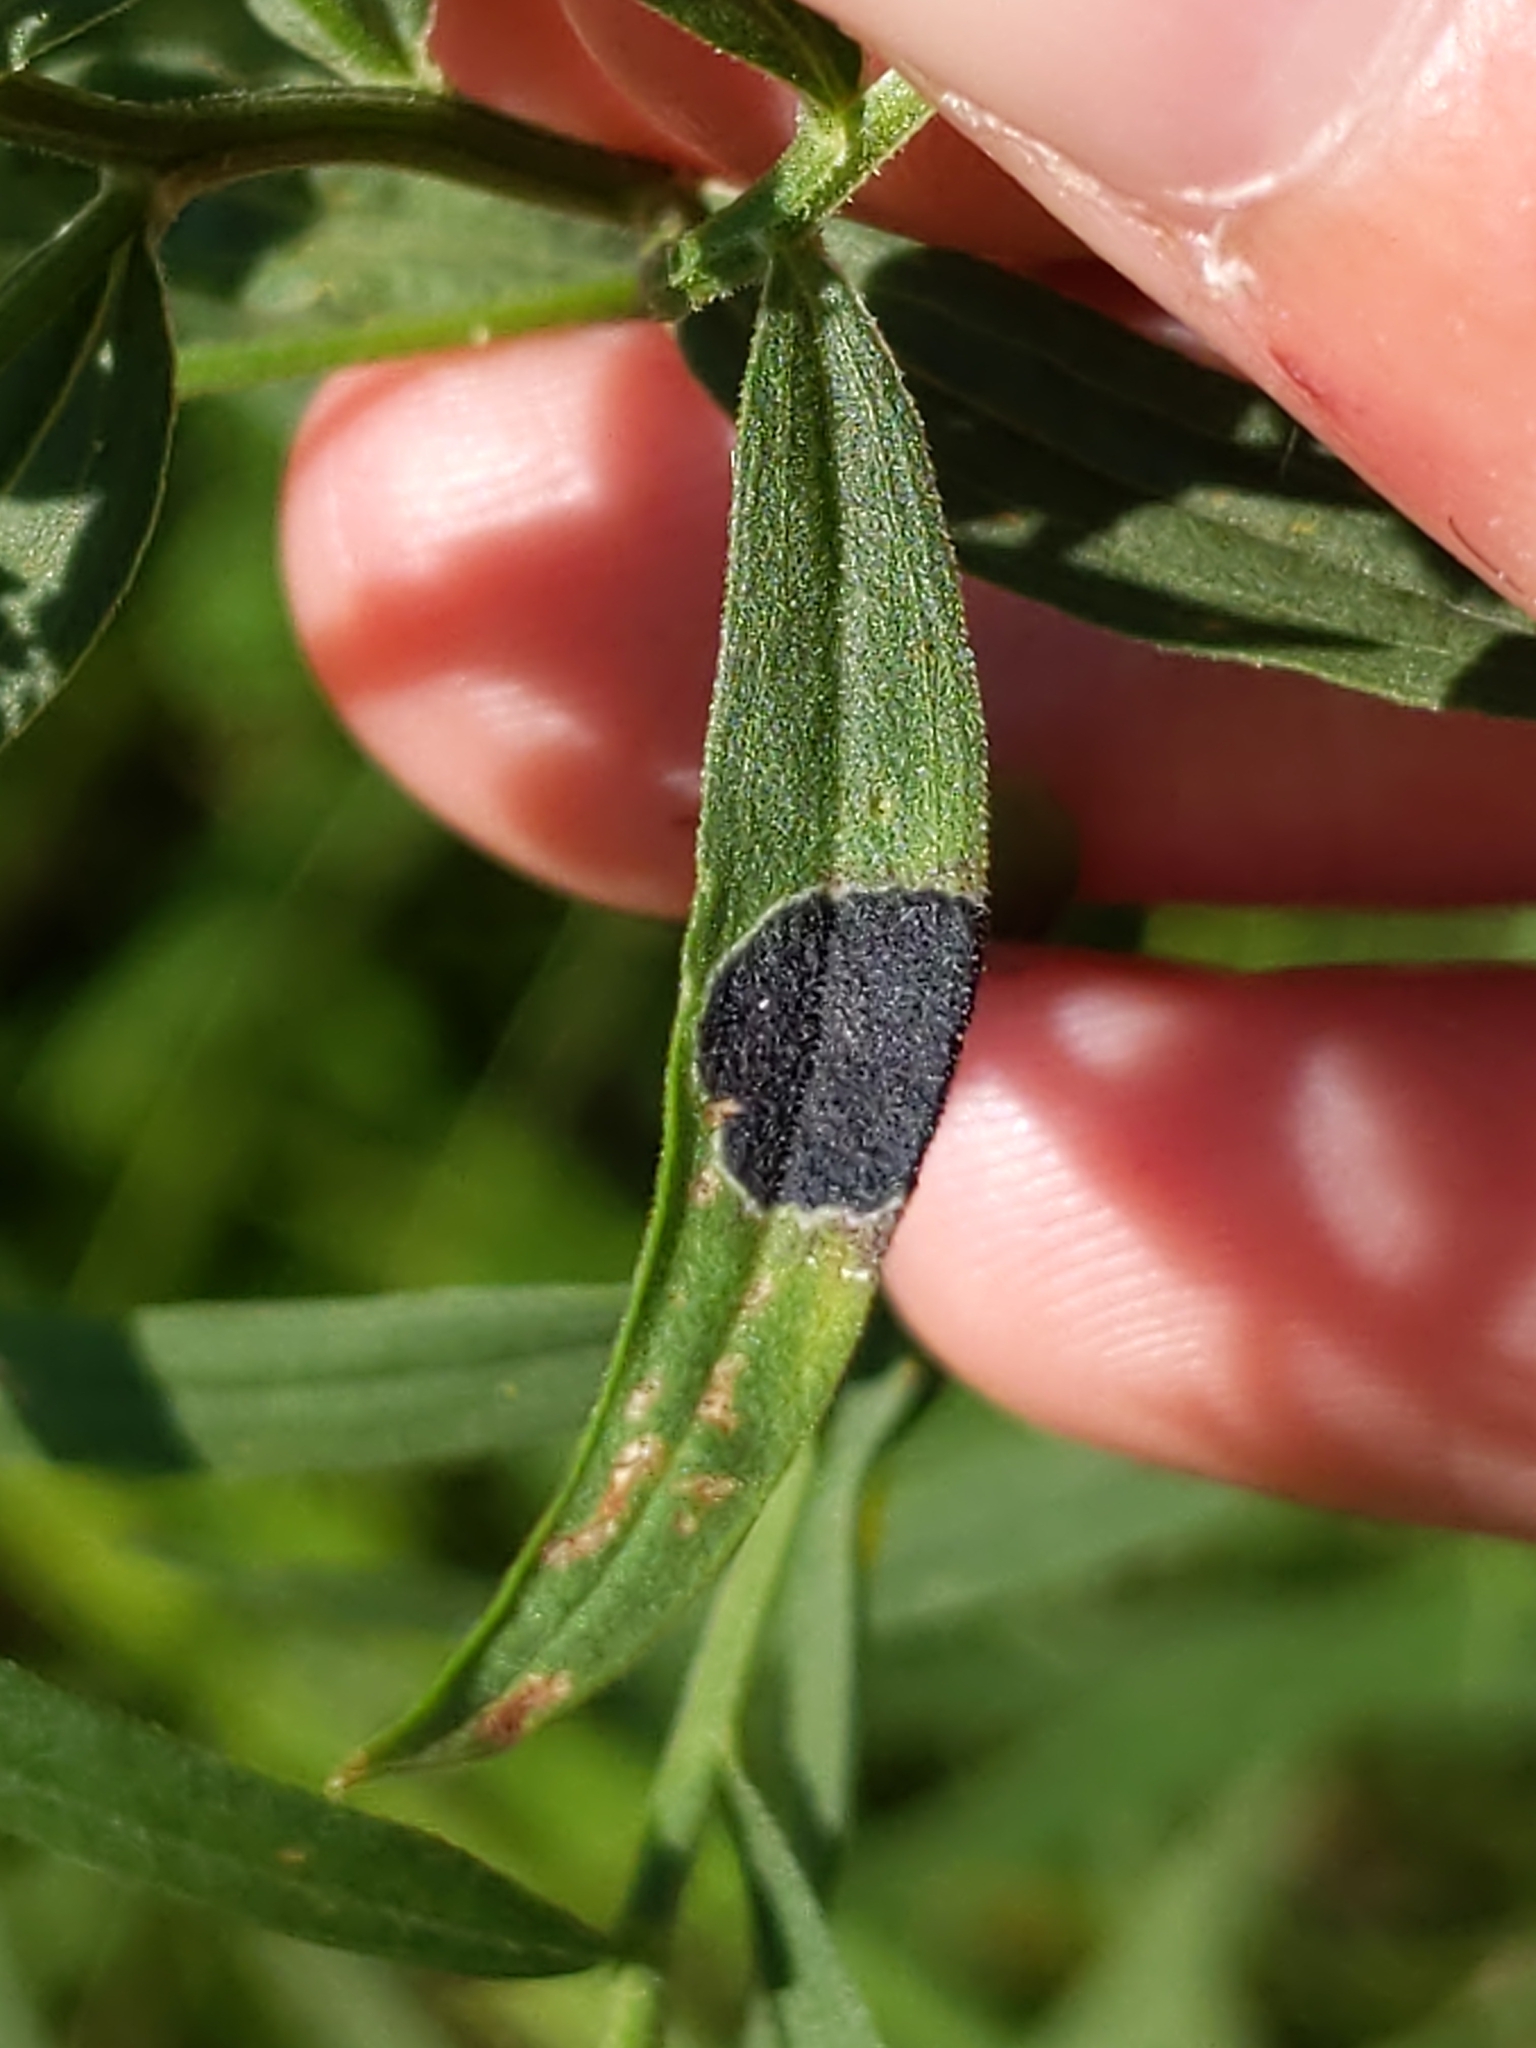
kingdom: Animalia
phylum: Arthropoda
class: Insecta
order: Diptera
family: Cecidomyiidae
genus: Asteromyia
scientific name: Asteromyia euthamiae
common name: Euthamia leaf gall midge
